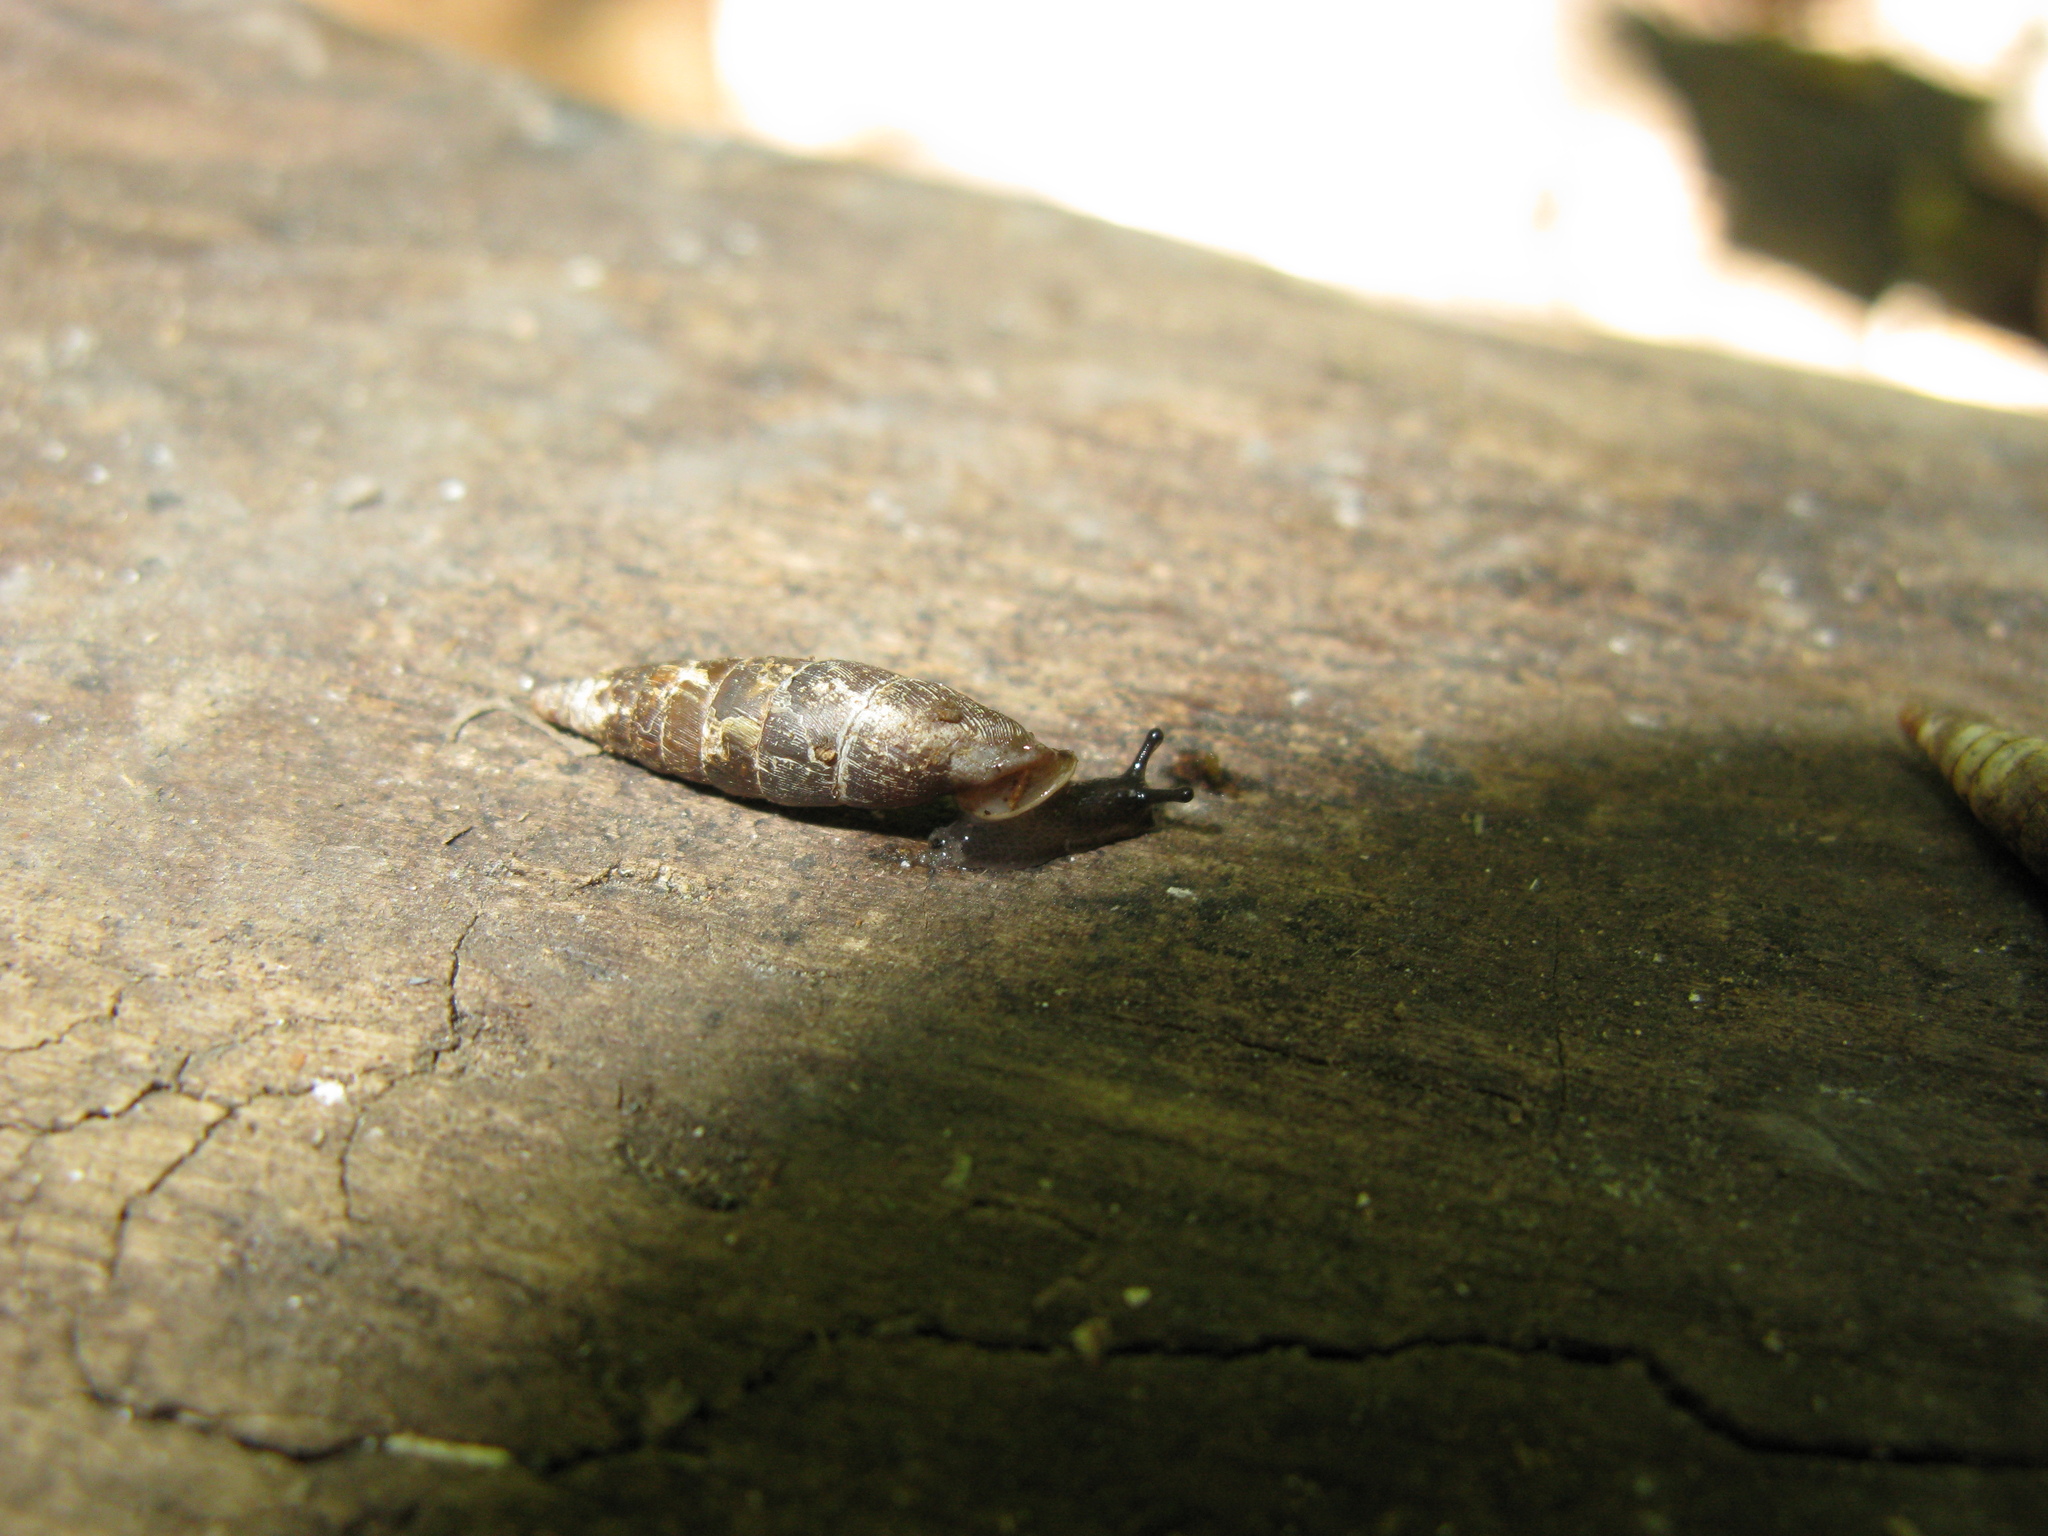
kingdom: Animalia
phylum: Mollusca
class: Gastropoda
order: Stylommatophora
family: Clausiliidae
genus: Mentissa
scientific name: Mentissa canalifera
